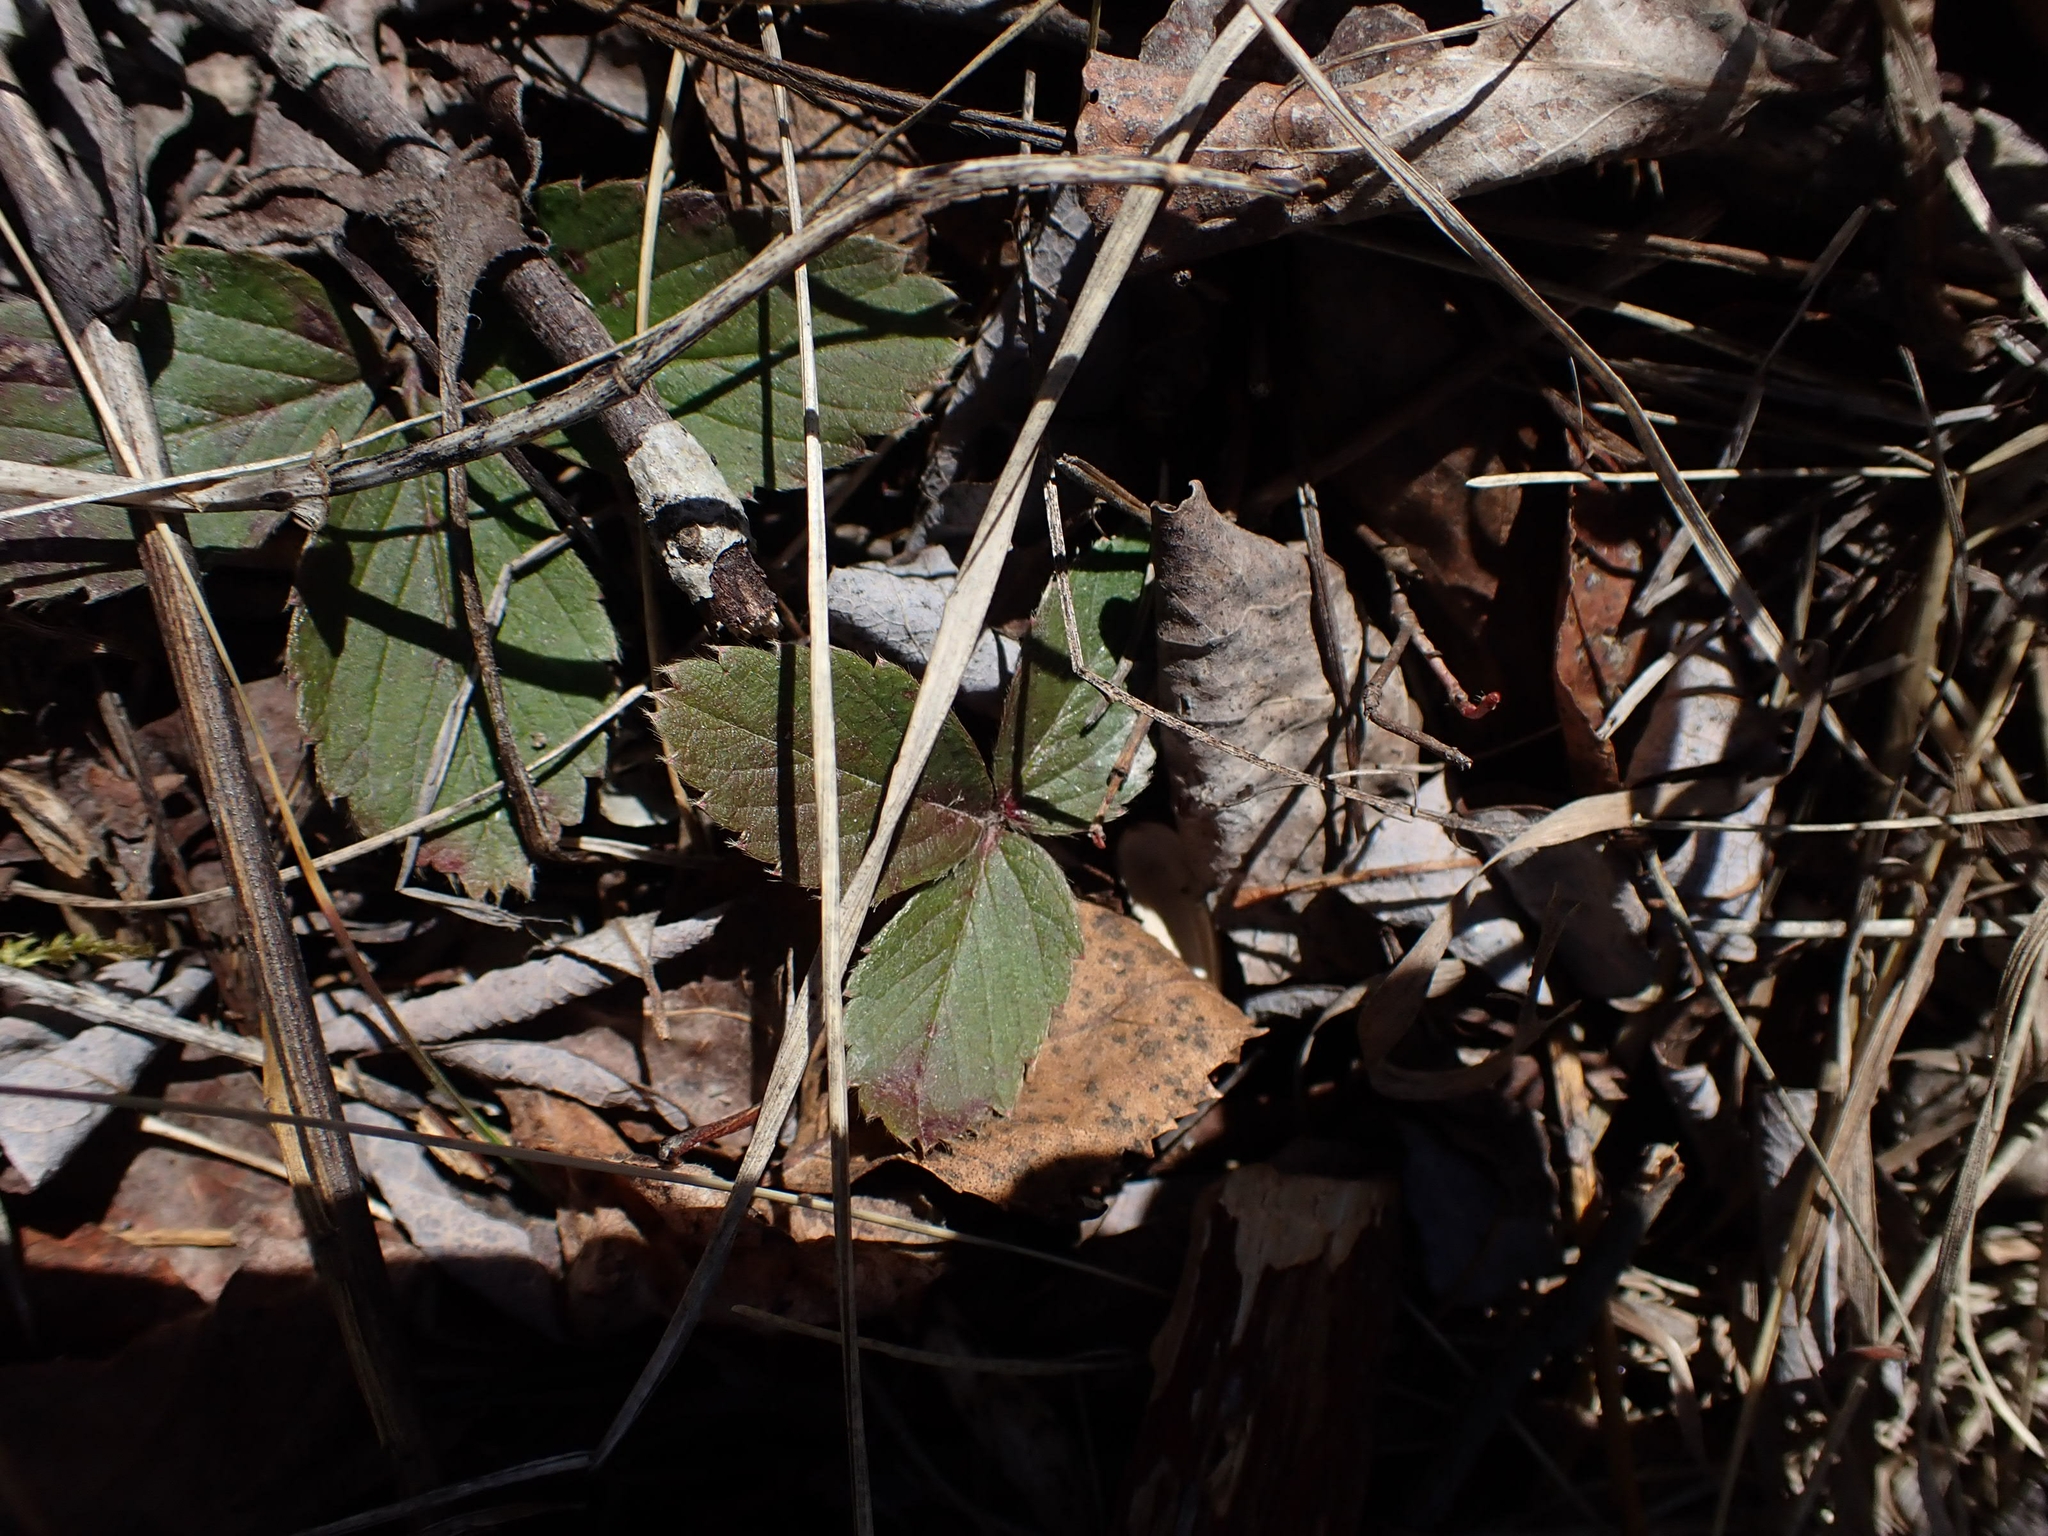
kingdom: Plantae
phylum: Tracheophyta
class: Magnoliopsida
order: Rosales
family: Rosaceae
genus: Fragaria
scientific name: Fragaria virginiana
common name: Thickleaved wild strawberry
